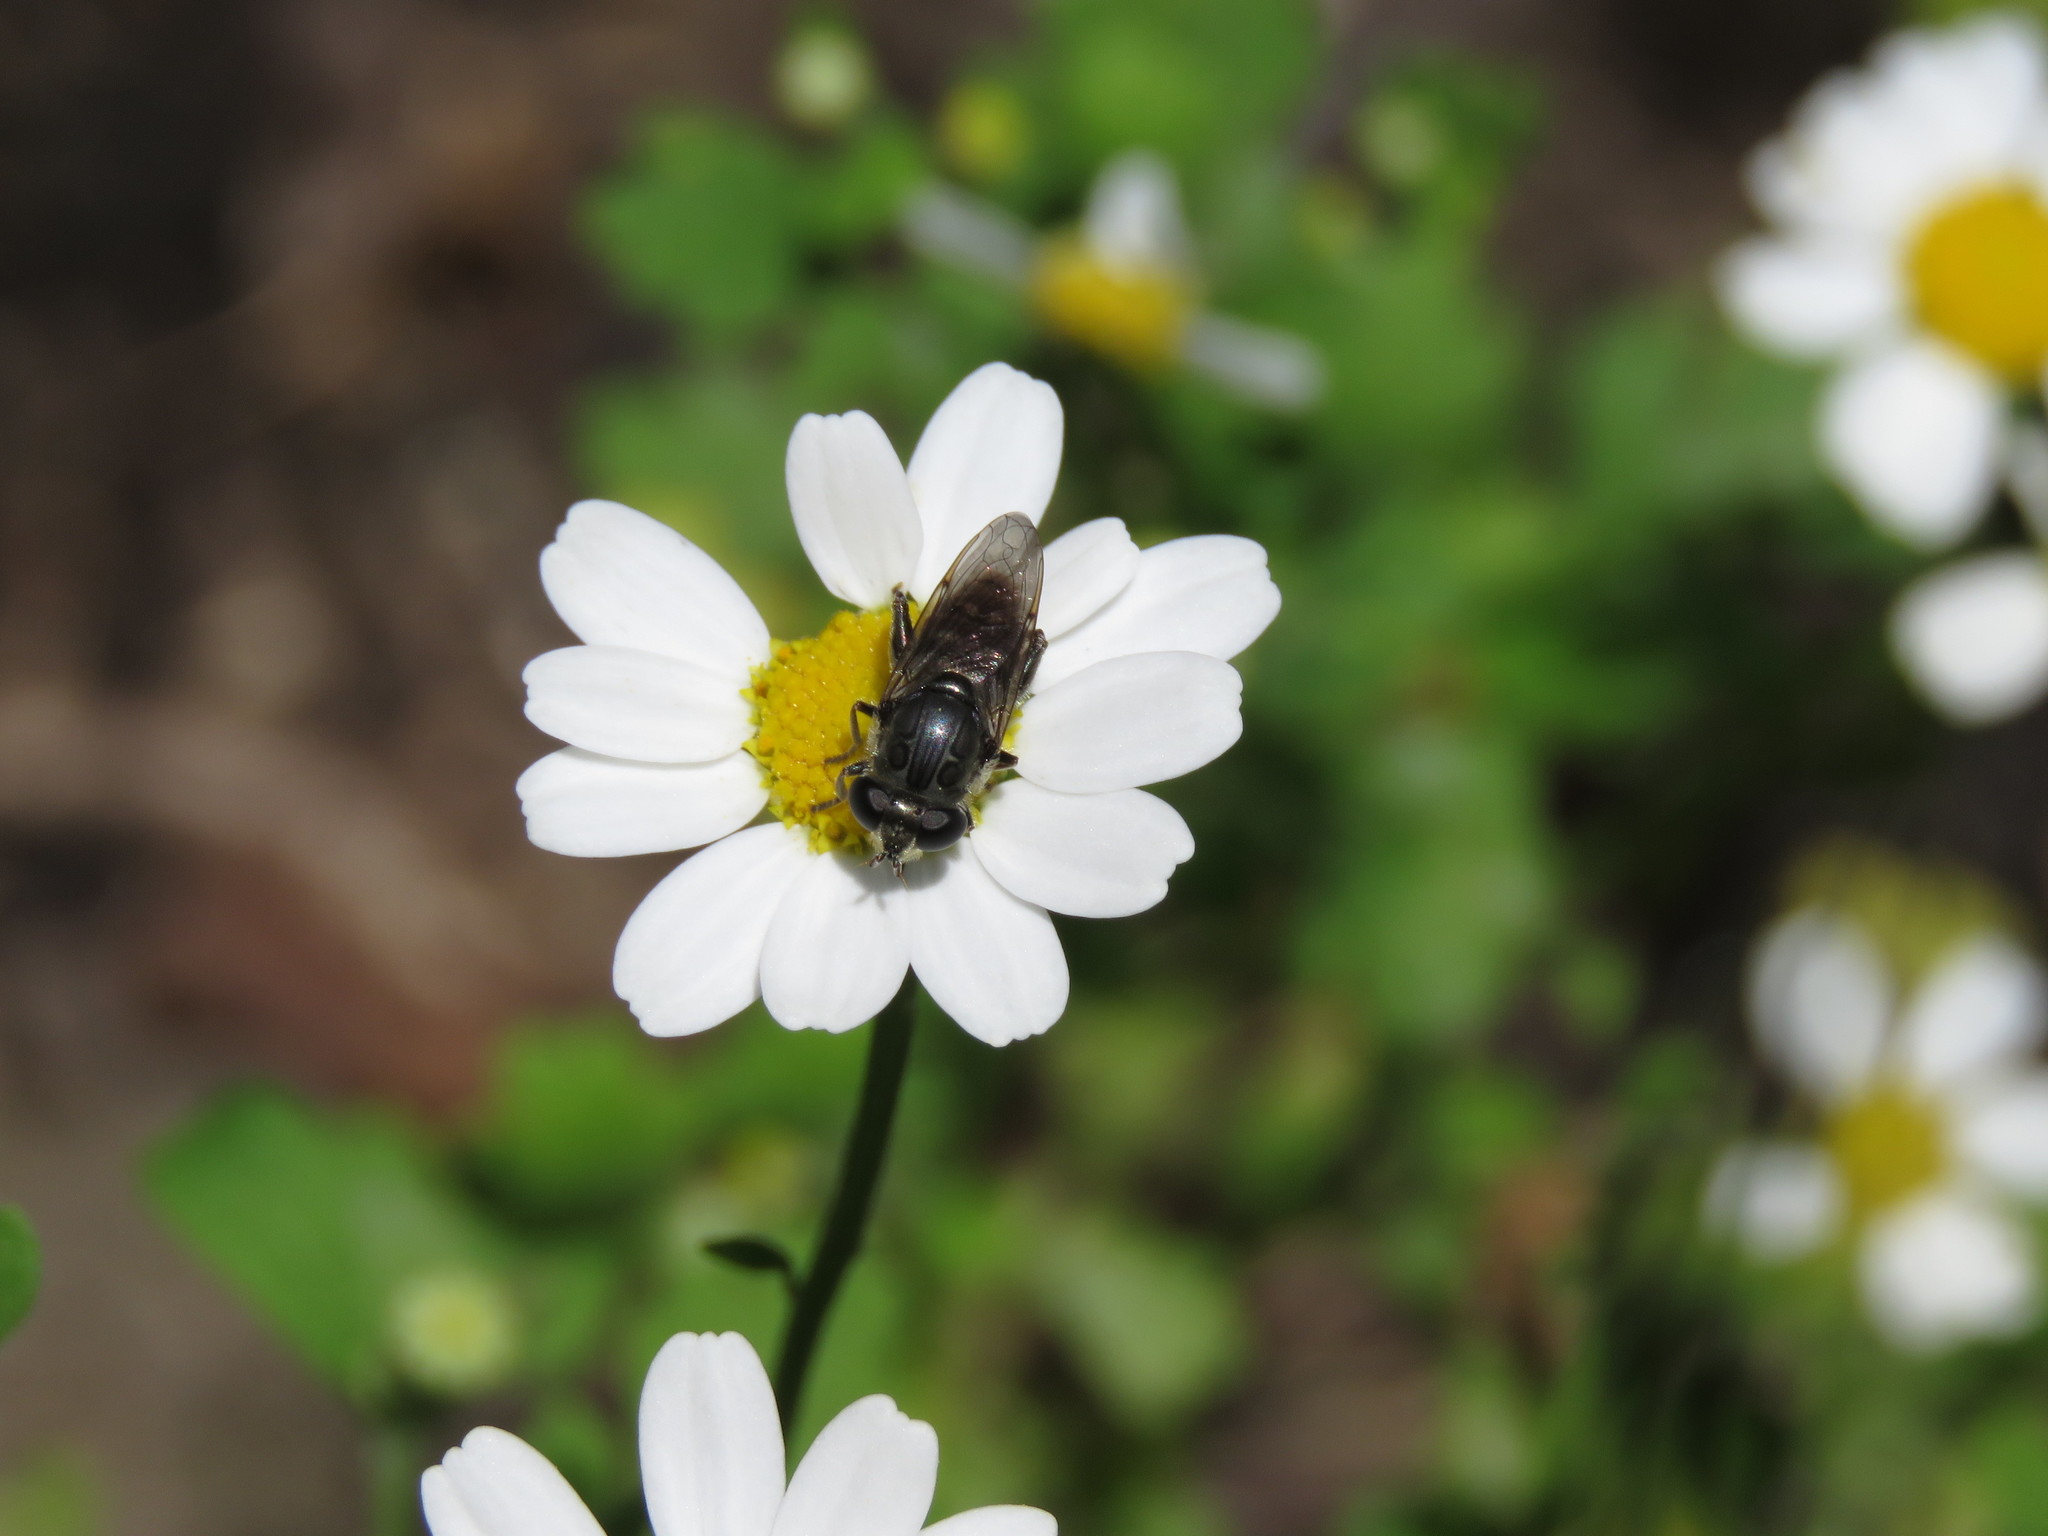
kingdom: Animalia
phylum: Arthropoda
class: Insecta
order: Diptera
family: Syrphidae
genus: Asemosyrphus
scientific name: Asemosyrphus
